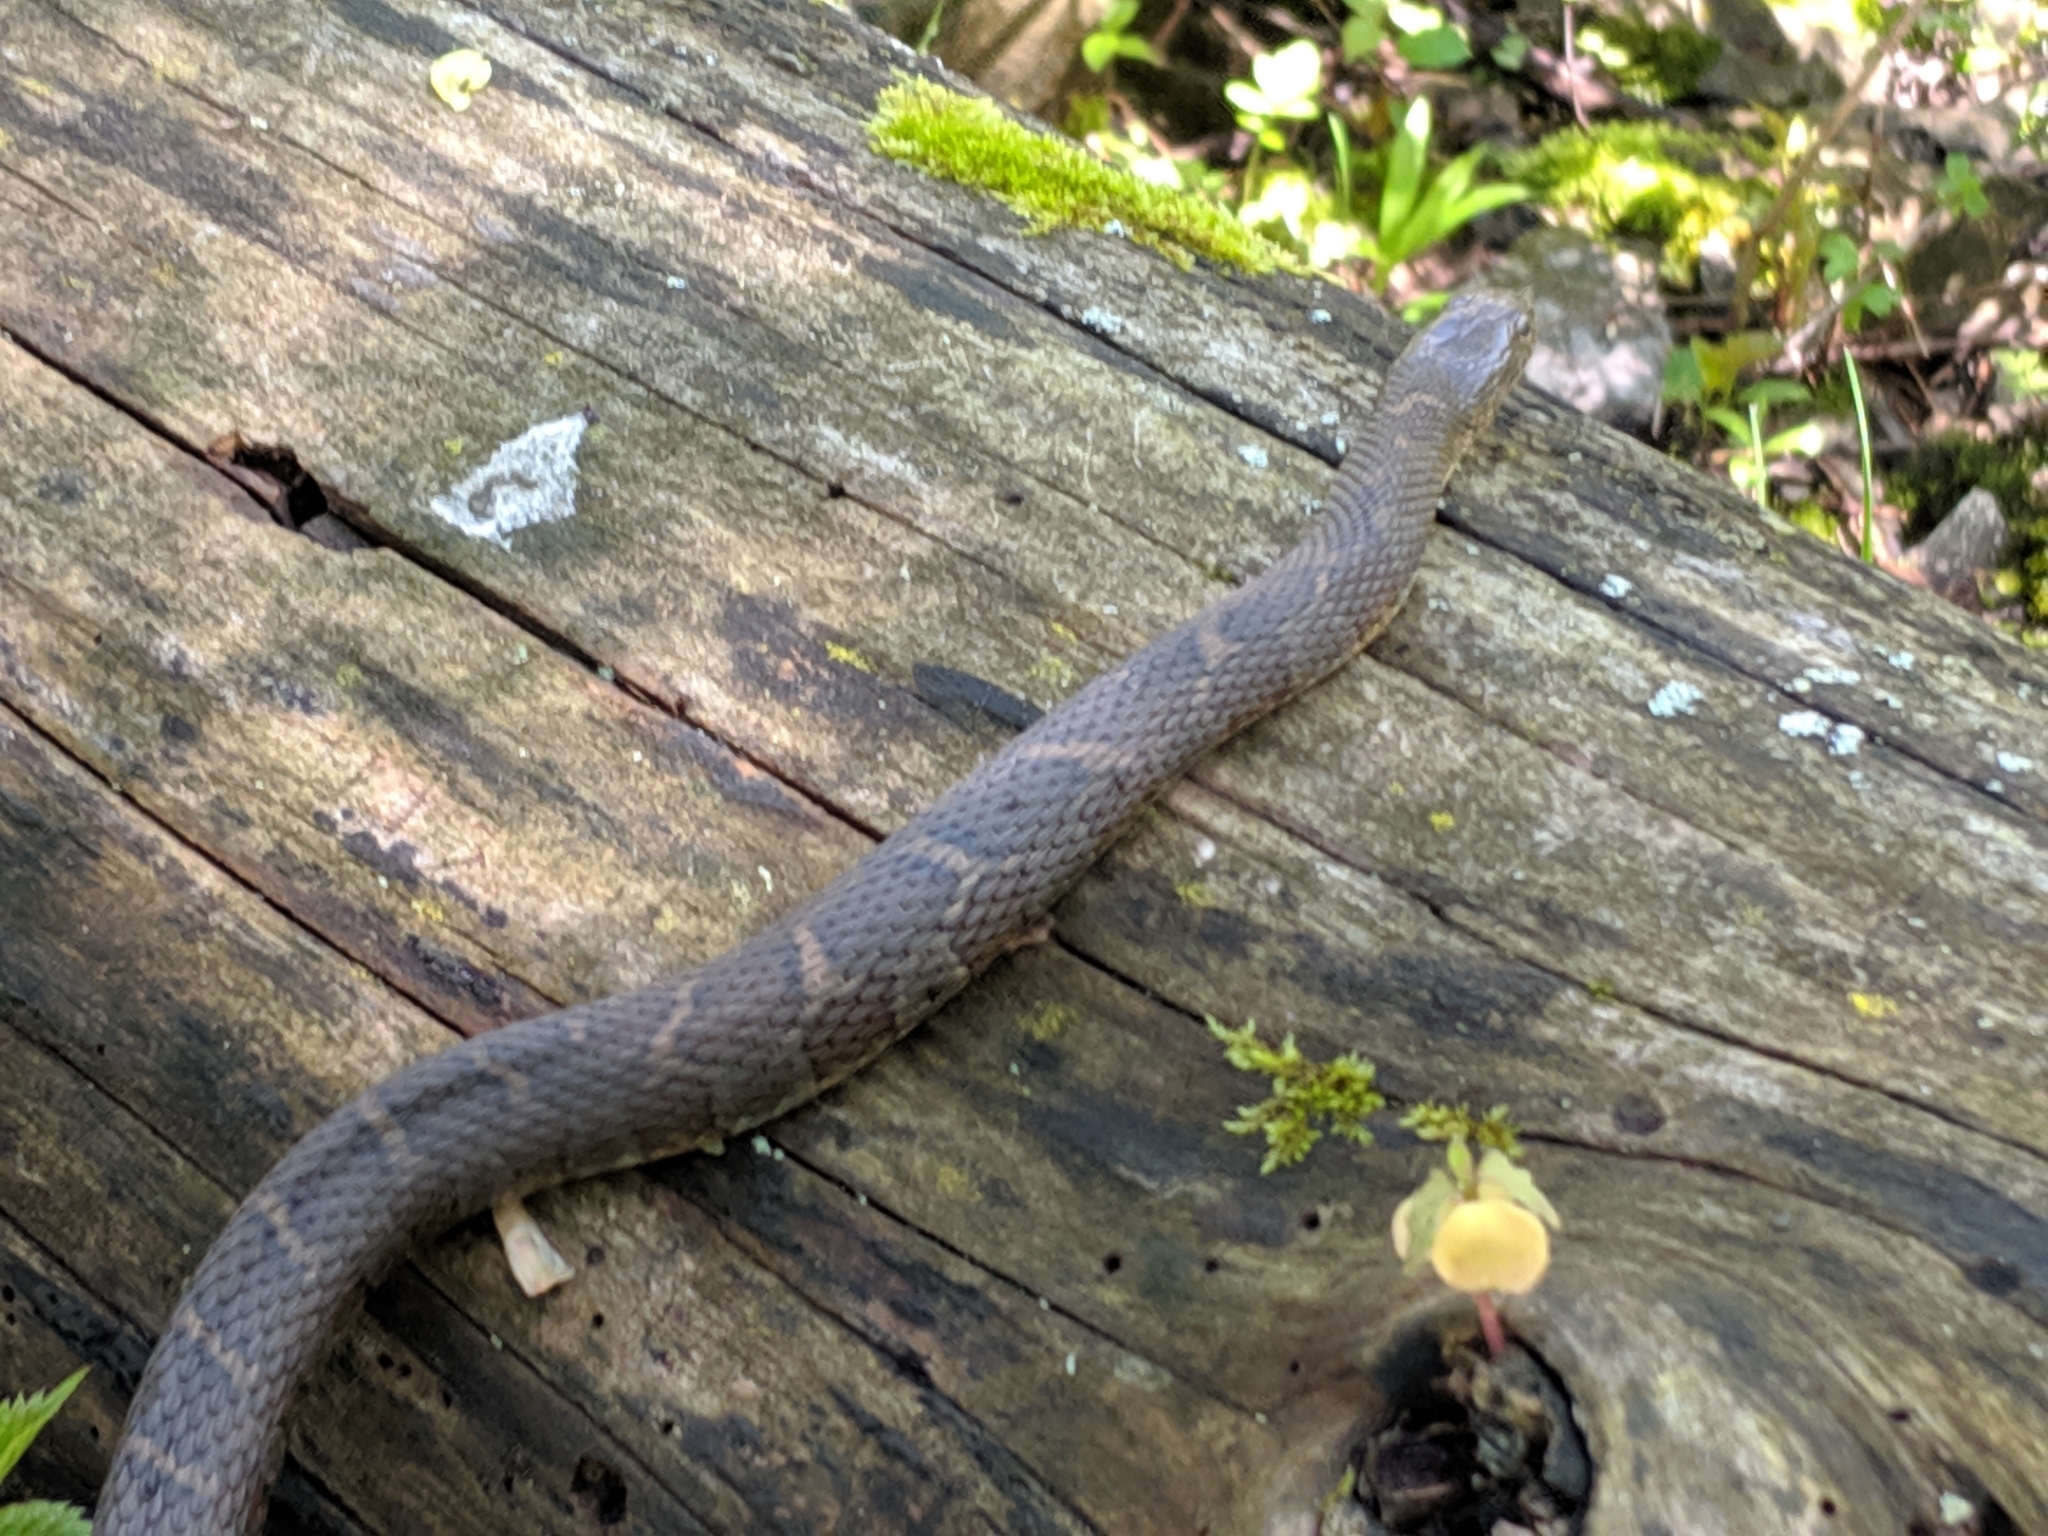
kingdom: Animalia
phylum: Chordata
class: Squamata
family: Colubridae
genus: Nerodia
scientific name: Nerodia sipedon
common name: Northern water snake
